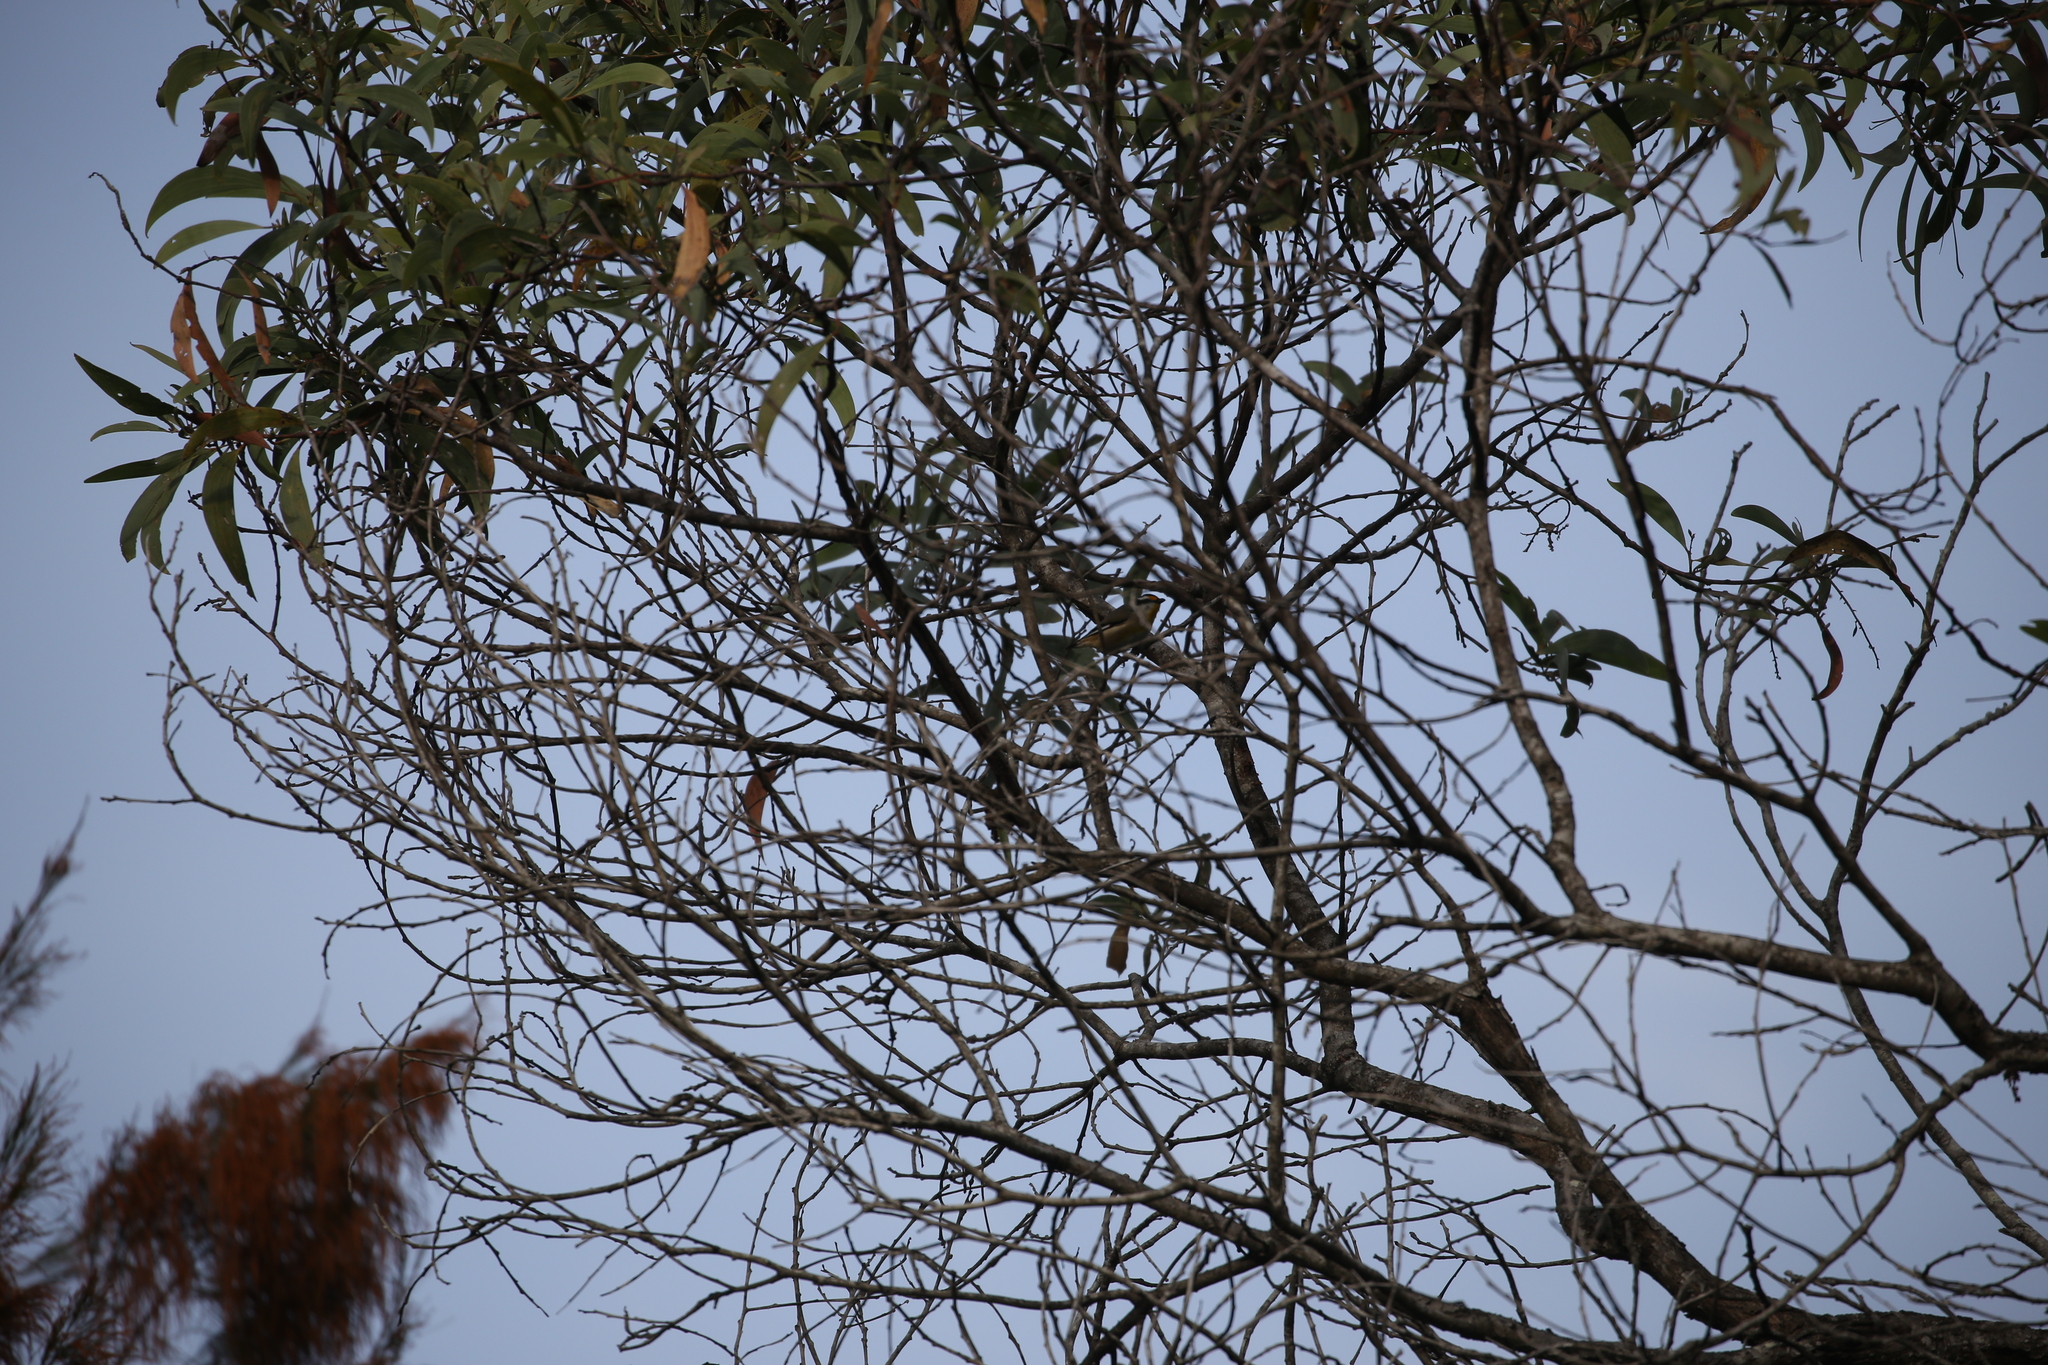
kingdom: Animalia
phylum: Chordata
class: Aves
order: Passeriformes
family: Pardalotidae
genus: Pardalotus
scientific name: Pardalotus striatus
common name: Striated pardalote
